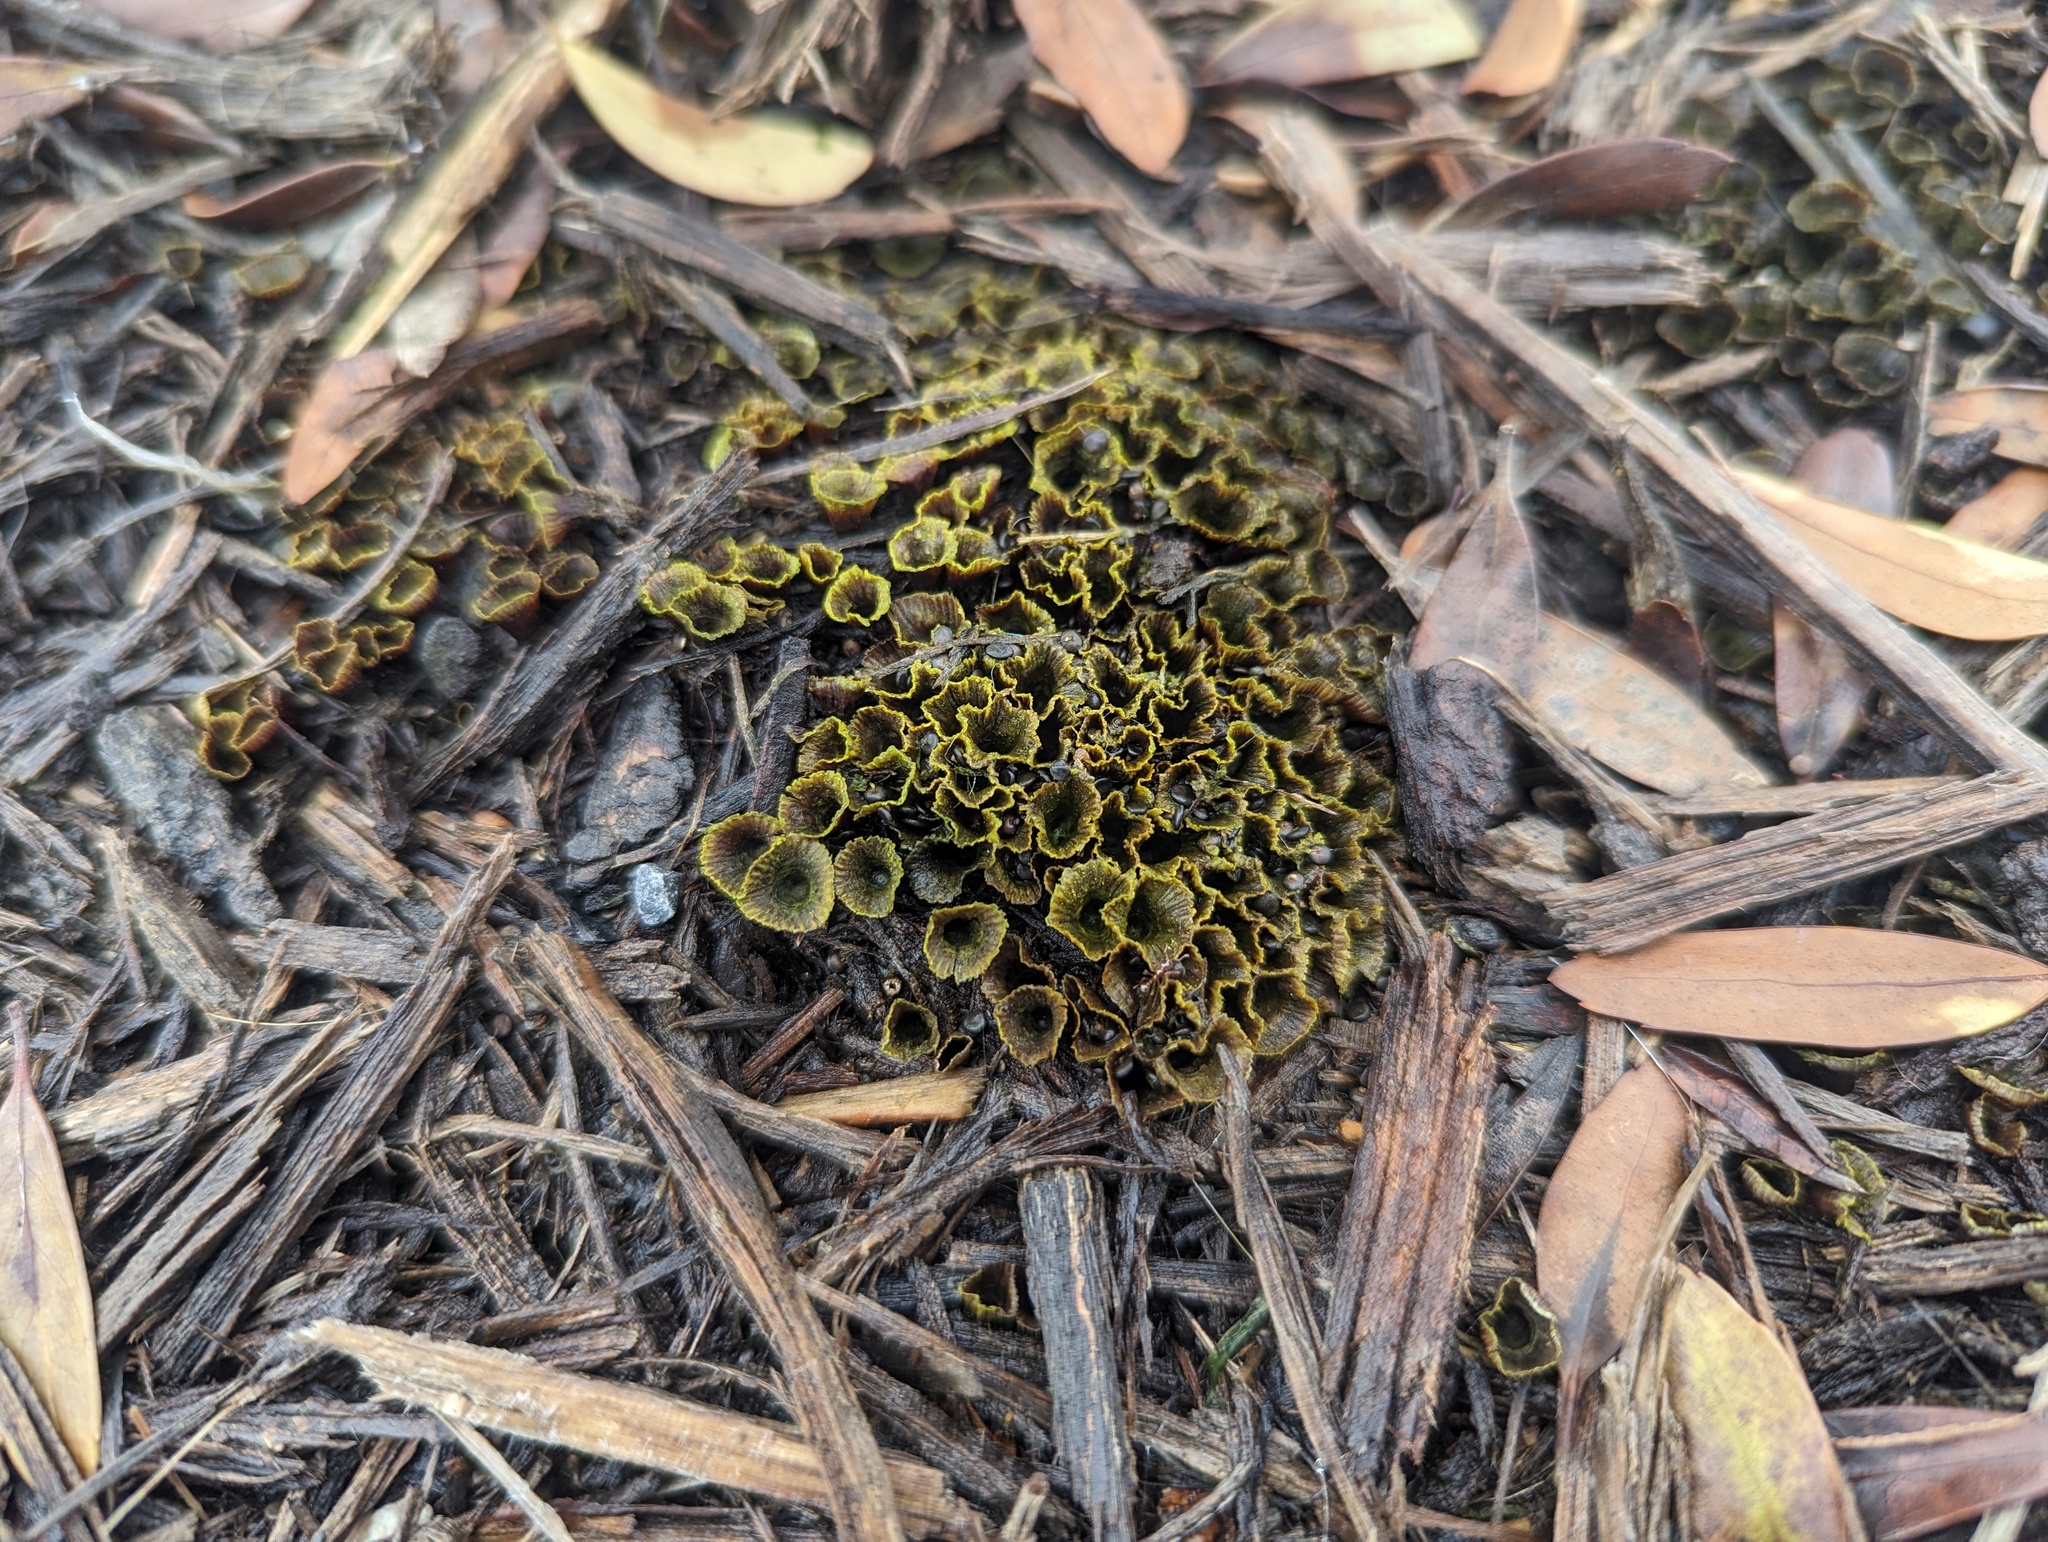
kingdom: Fungi
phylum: Basidiomycota
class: Agaricomycetes
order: Agaricales
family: Agaricaceae
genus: Cyathus
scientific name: Cyathus striatus
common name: Fluted bird's nest
